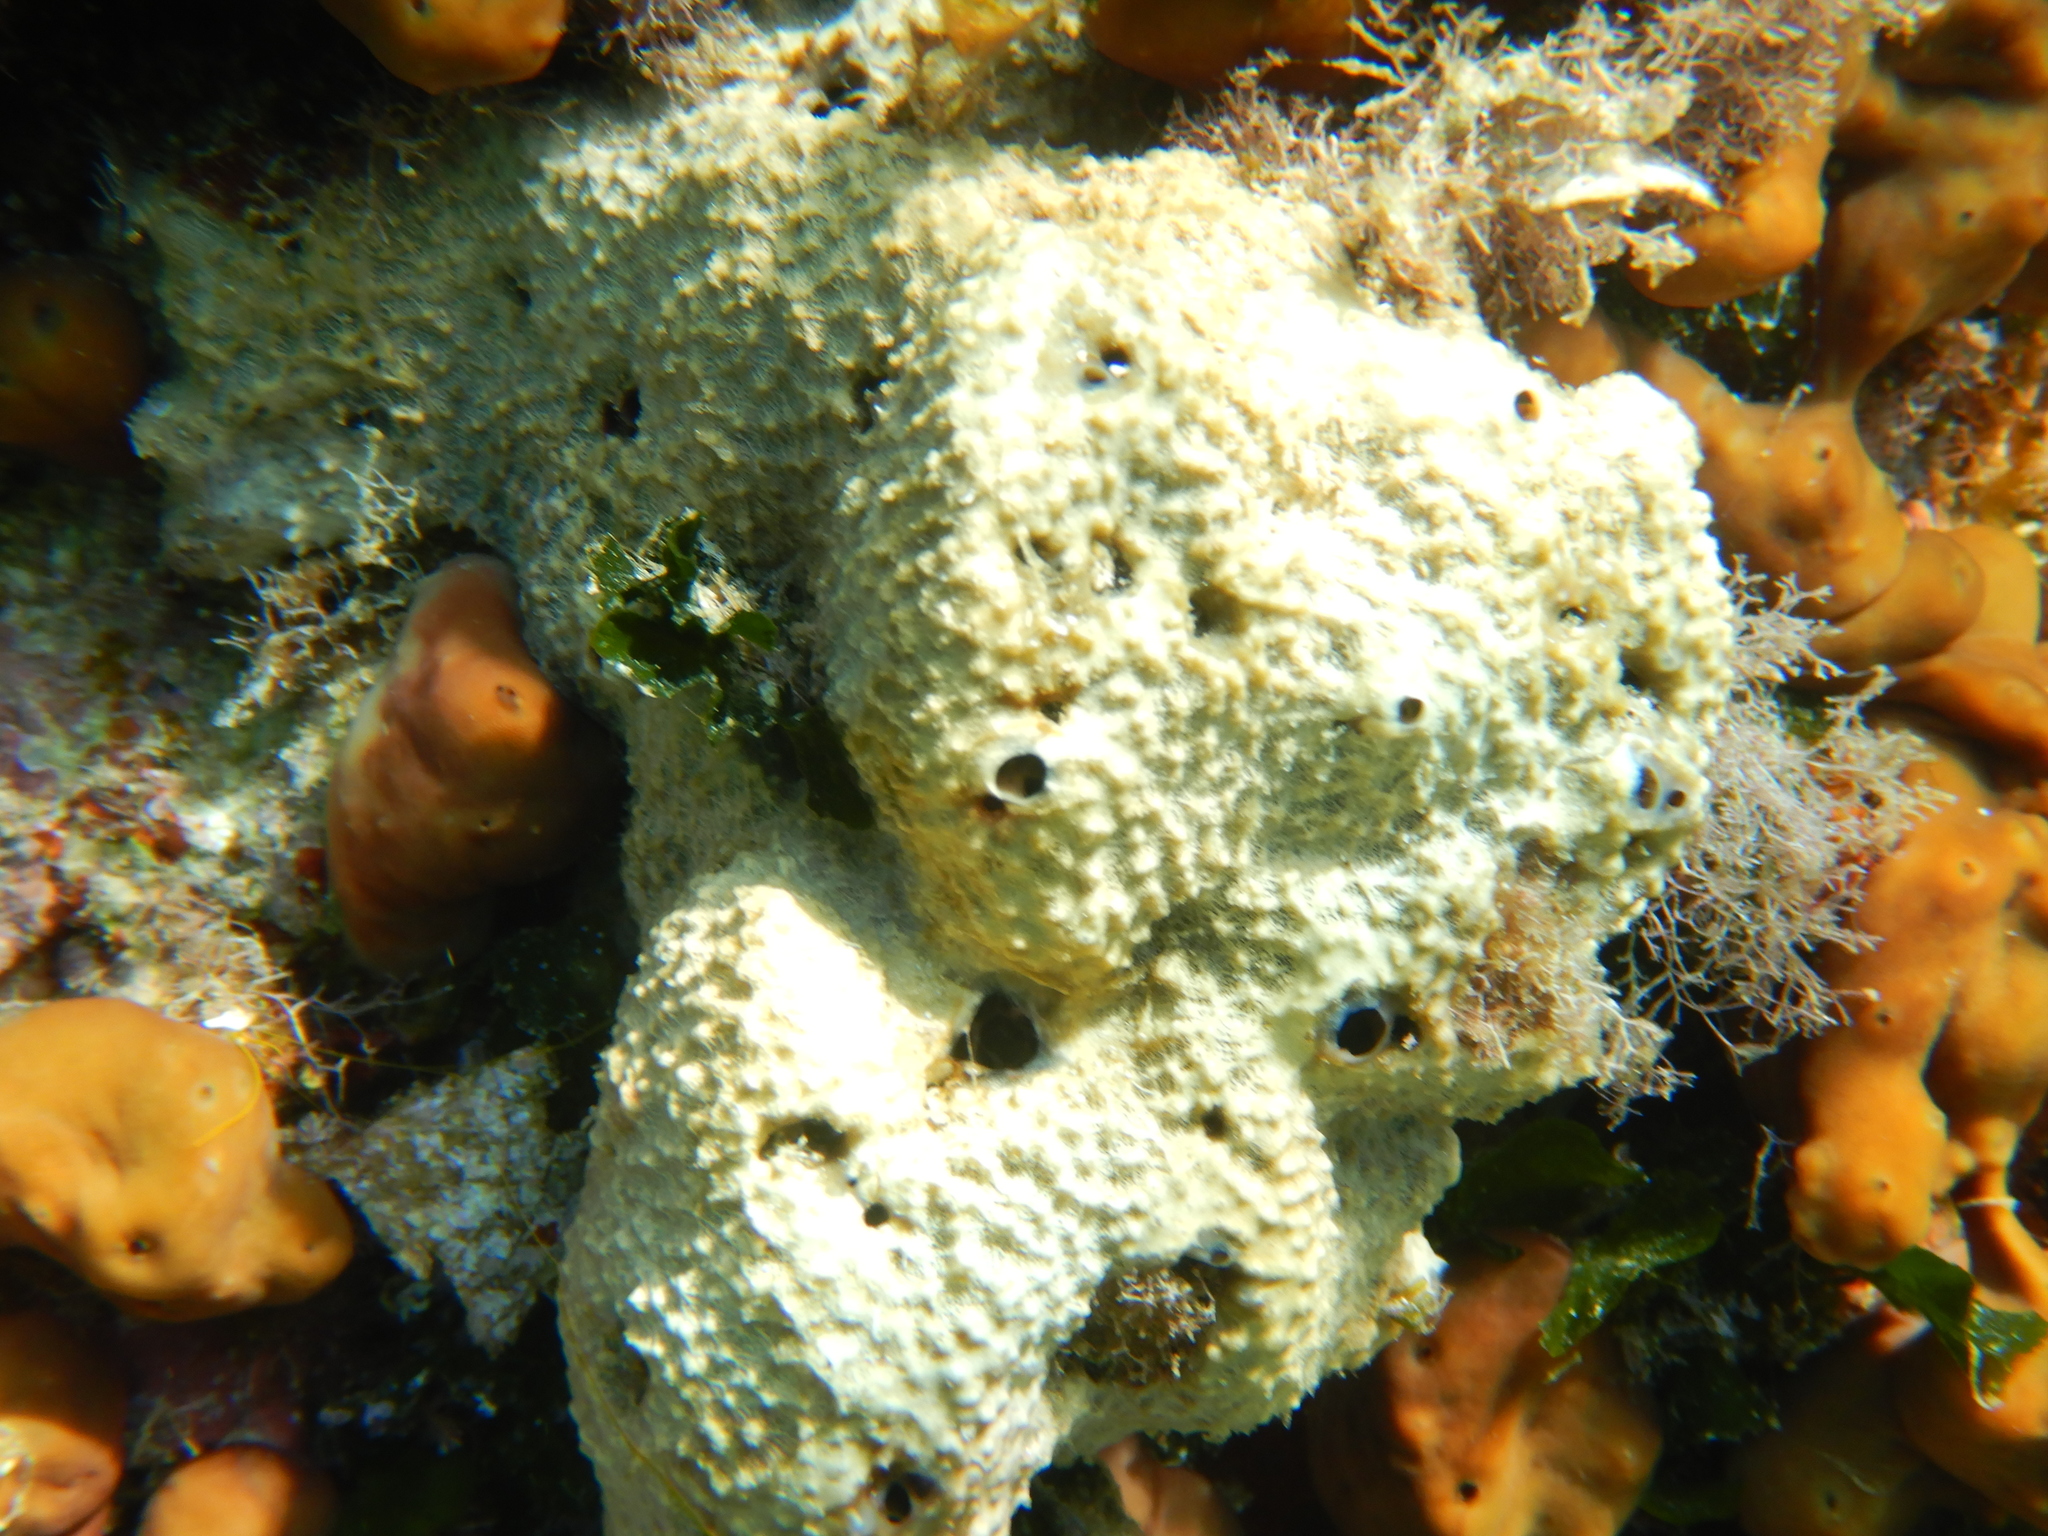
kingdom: Animalia
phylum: Porifera
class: Demospongiae
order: Dictyoceratida
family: Irciniidae
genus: Sarcotragus
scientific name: Sarcotragus fasciculatus
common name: Stinker sponge
